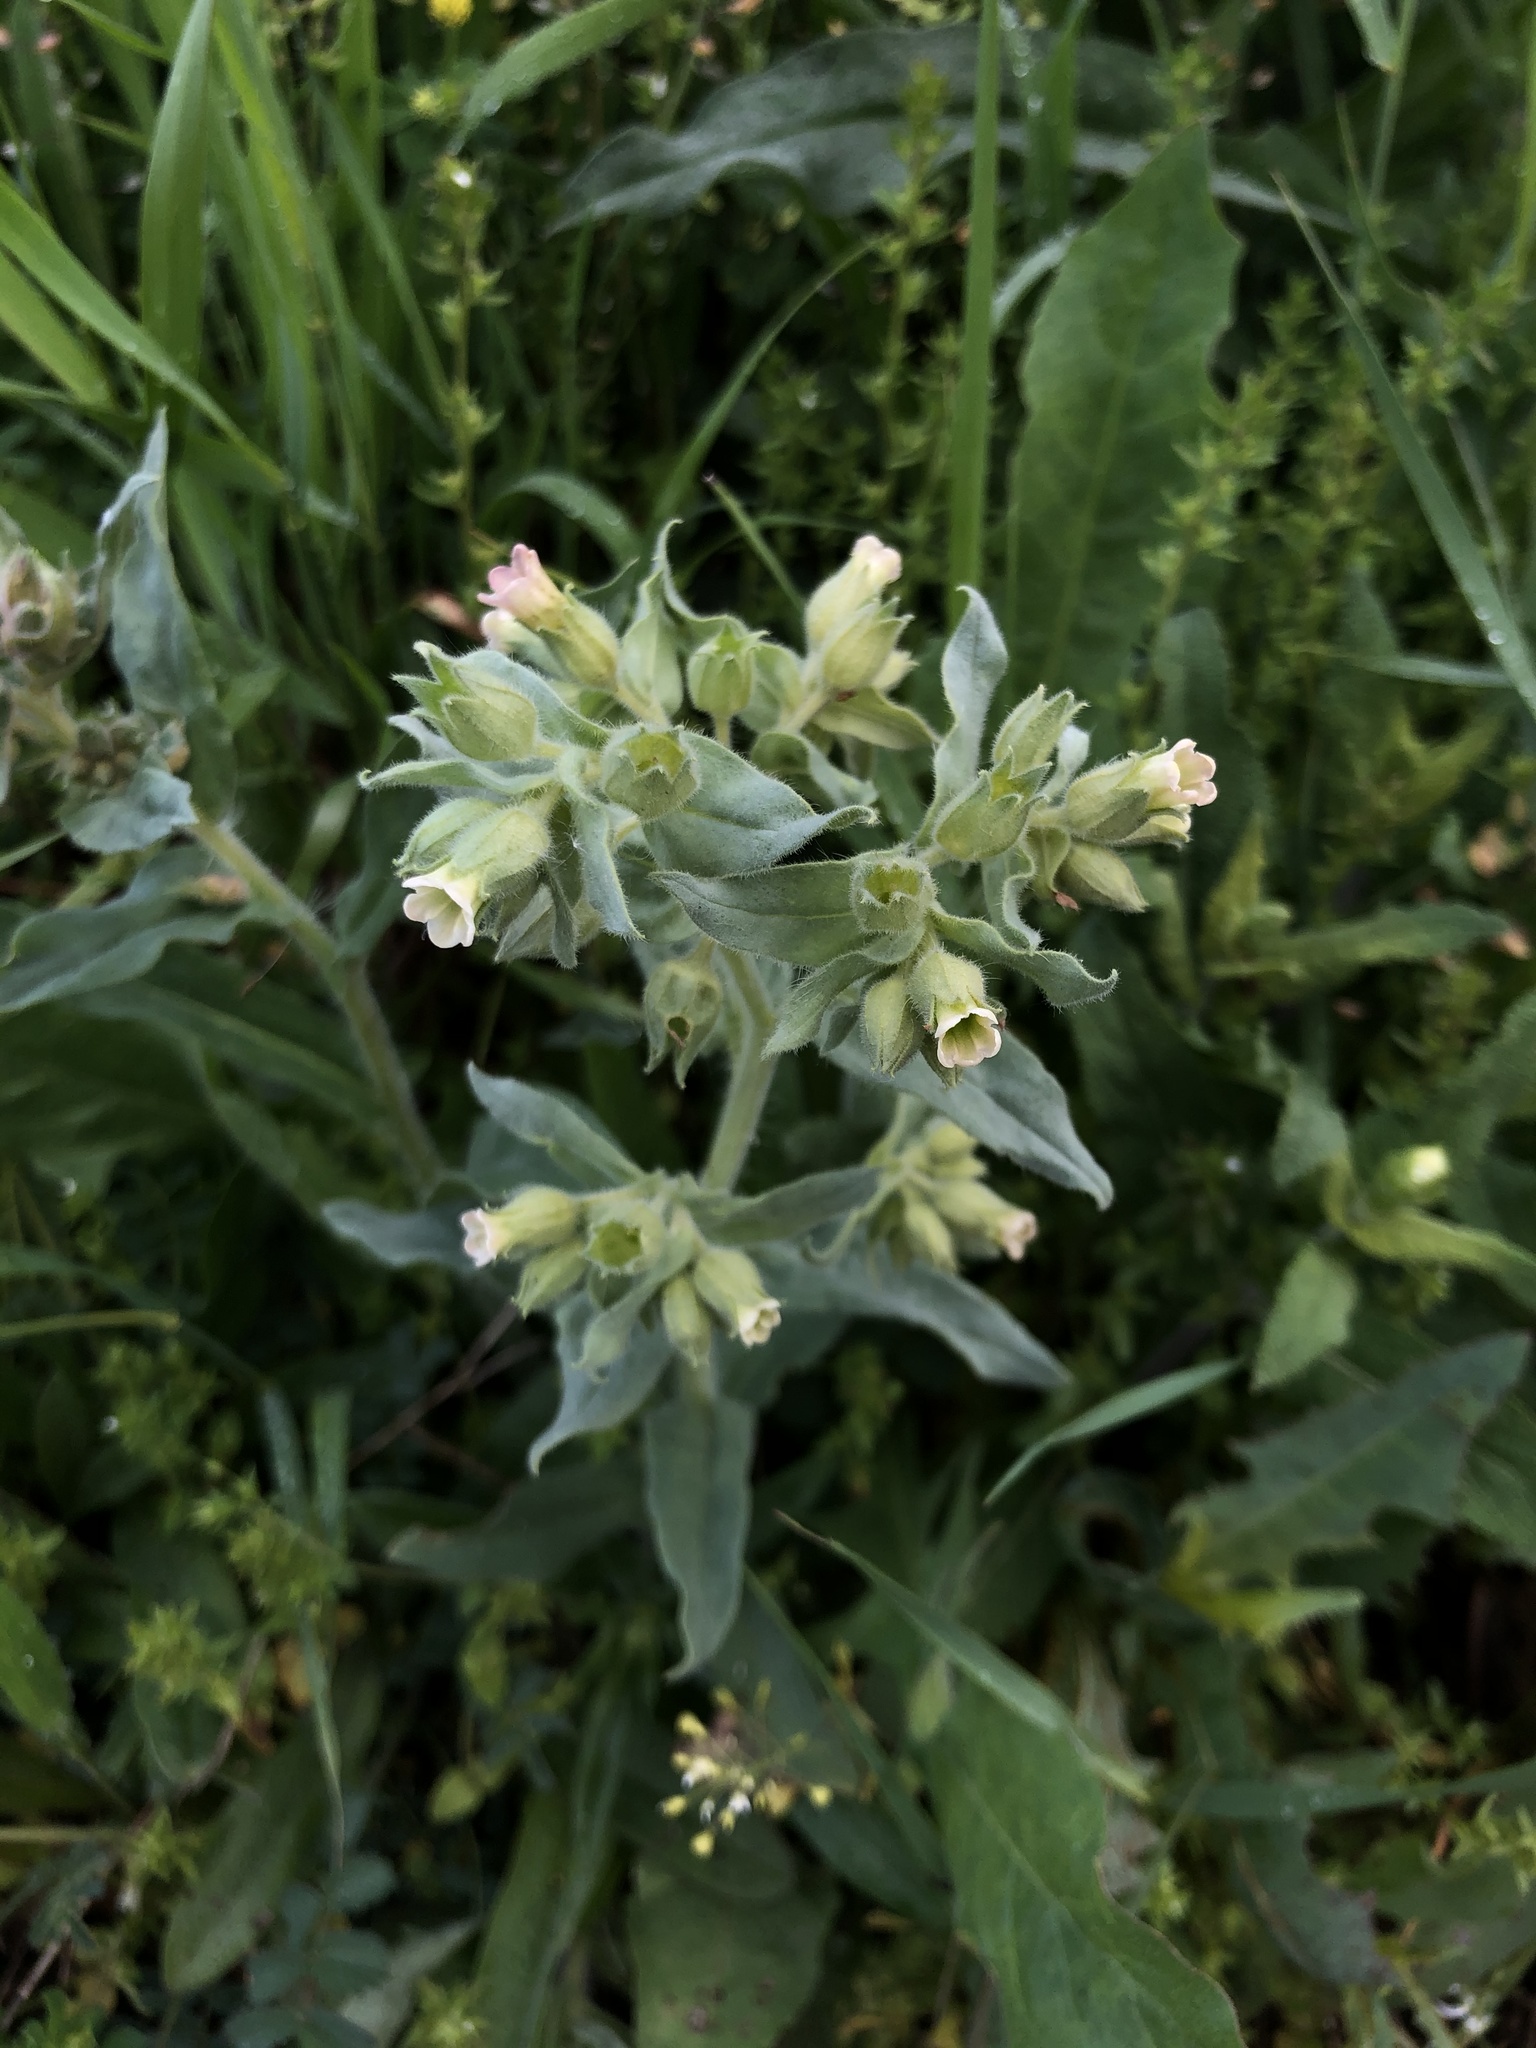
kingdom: Plantae
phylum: Tracheophyta
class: Magnoliopsida
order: Boraginales
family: Boraginaceae
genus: Nonea
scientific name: Nonea pulla
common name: Brown nonea
